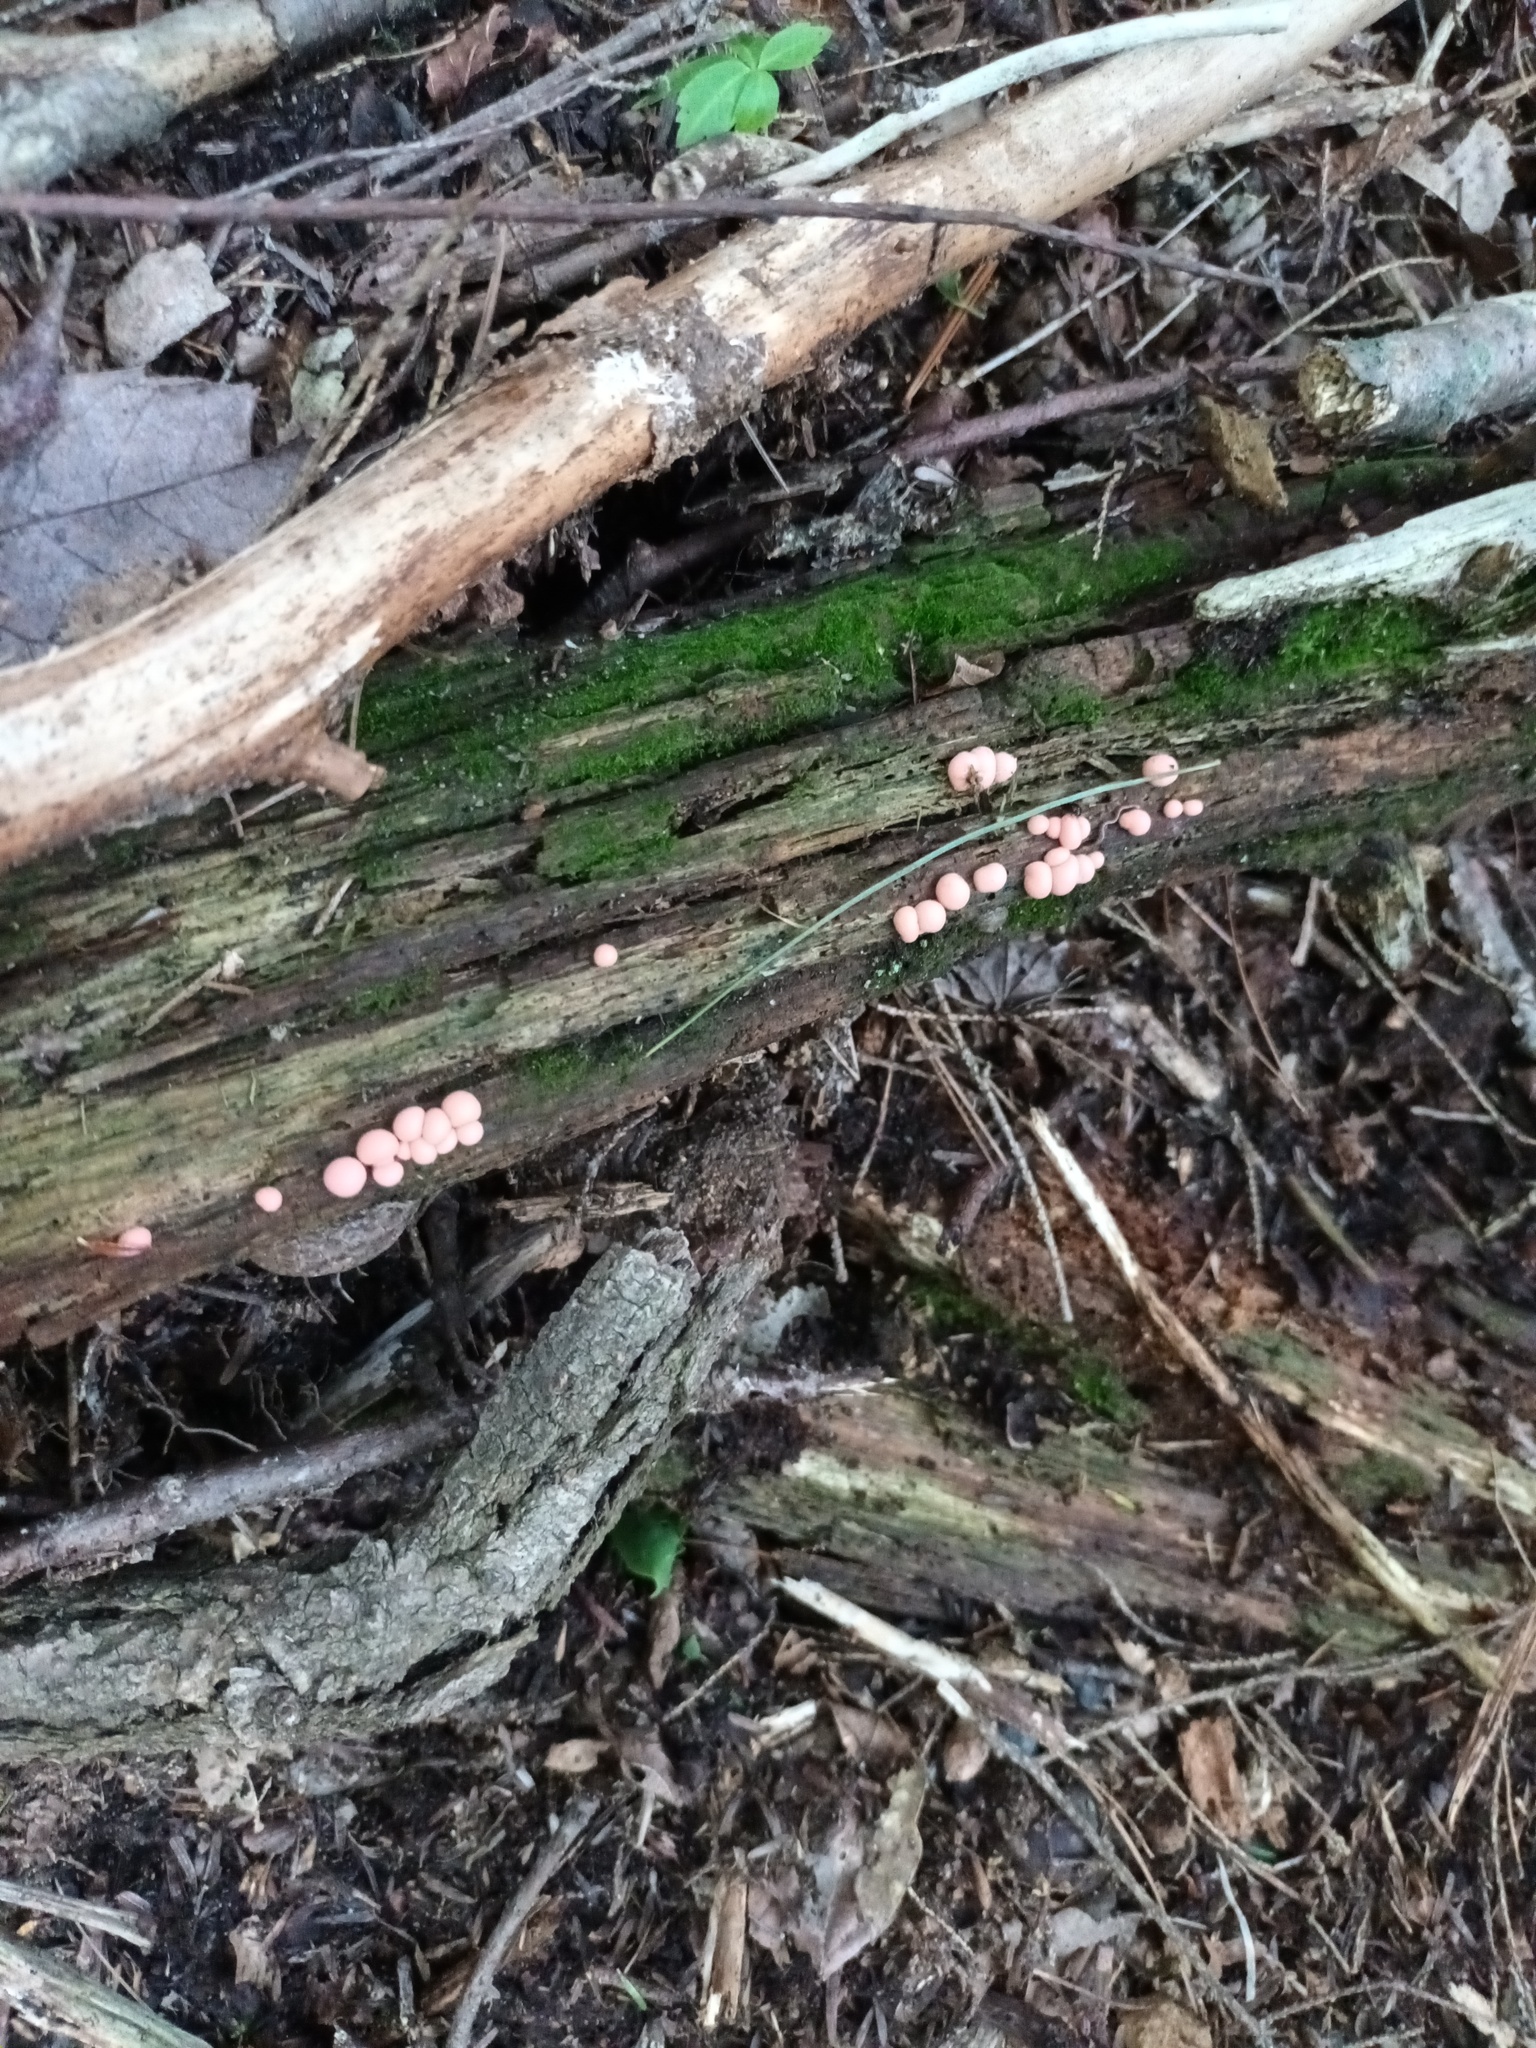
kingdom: Protozoa
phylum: Mycetozoa
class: Myxomycetes
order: Cribrariales
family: Tubiferaceae
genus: Lycogala
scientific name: Lycogala epidendrum
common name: Wolf's milk
